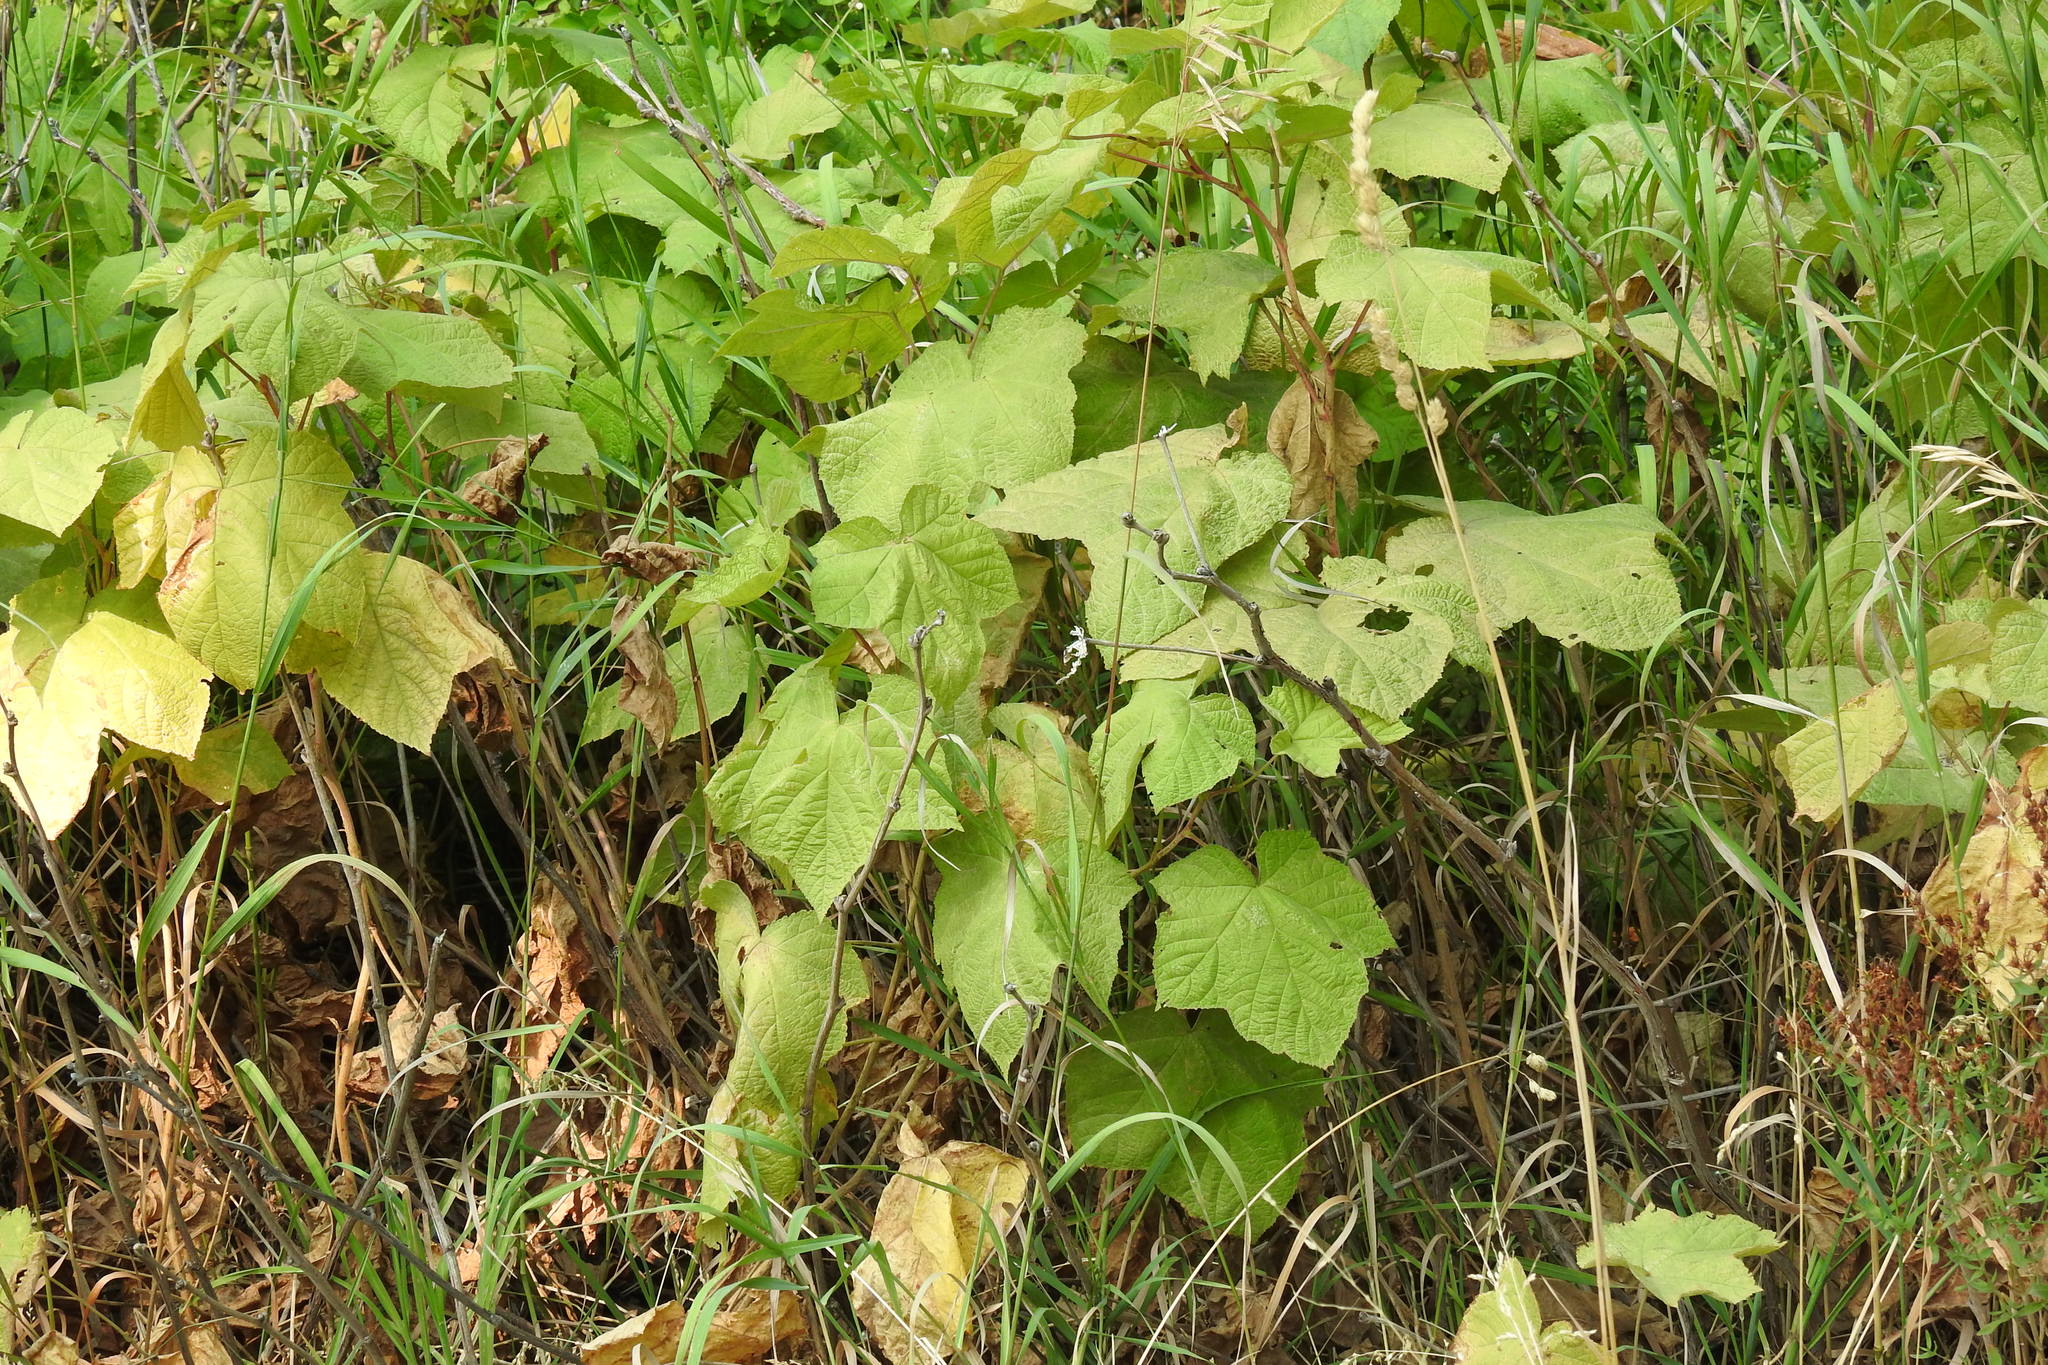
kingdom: Plantae
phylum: Tracheophyta
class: Magnoliopsida
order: Rosales
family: Rosaceae
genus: Rubus
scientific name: Rubus parviflorus
